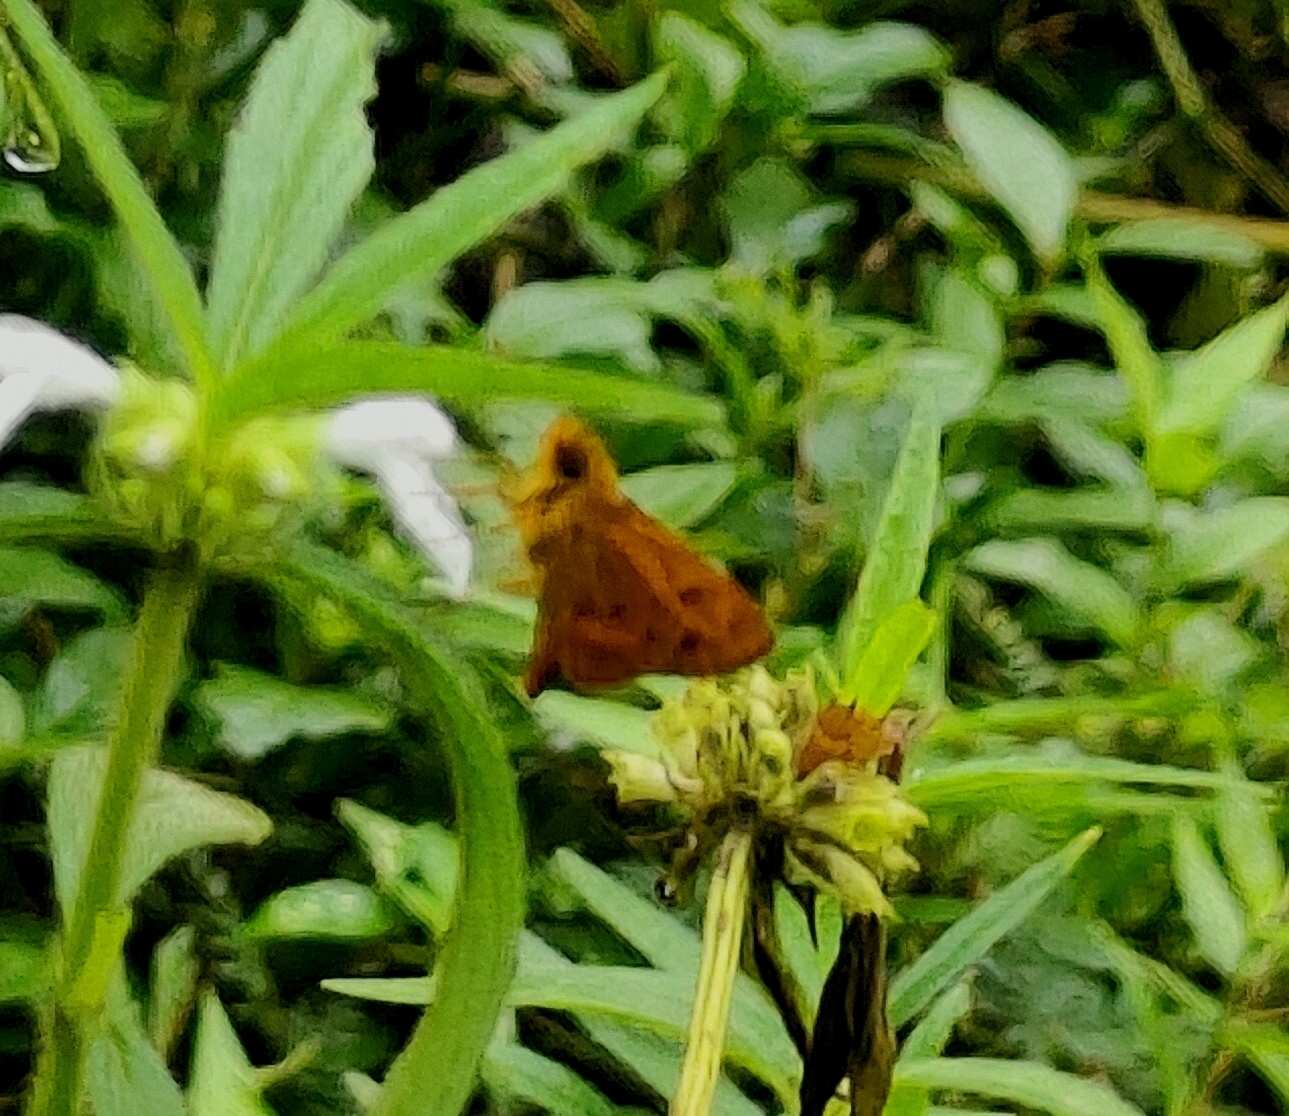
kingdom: Animalia
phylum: Arthropoda
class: Insecta
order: Lepidoptera
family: Hesperiidae
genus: Oriens
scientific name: Oriens goloides
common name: Smaller dartlet
